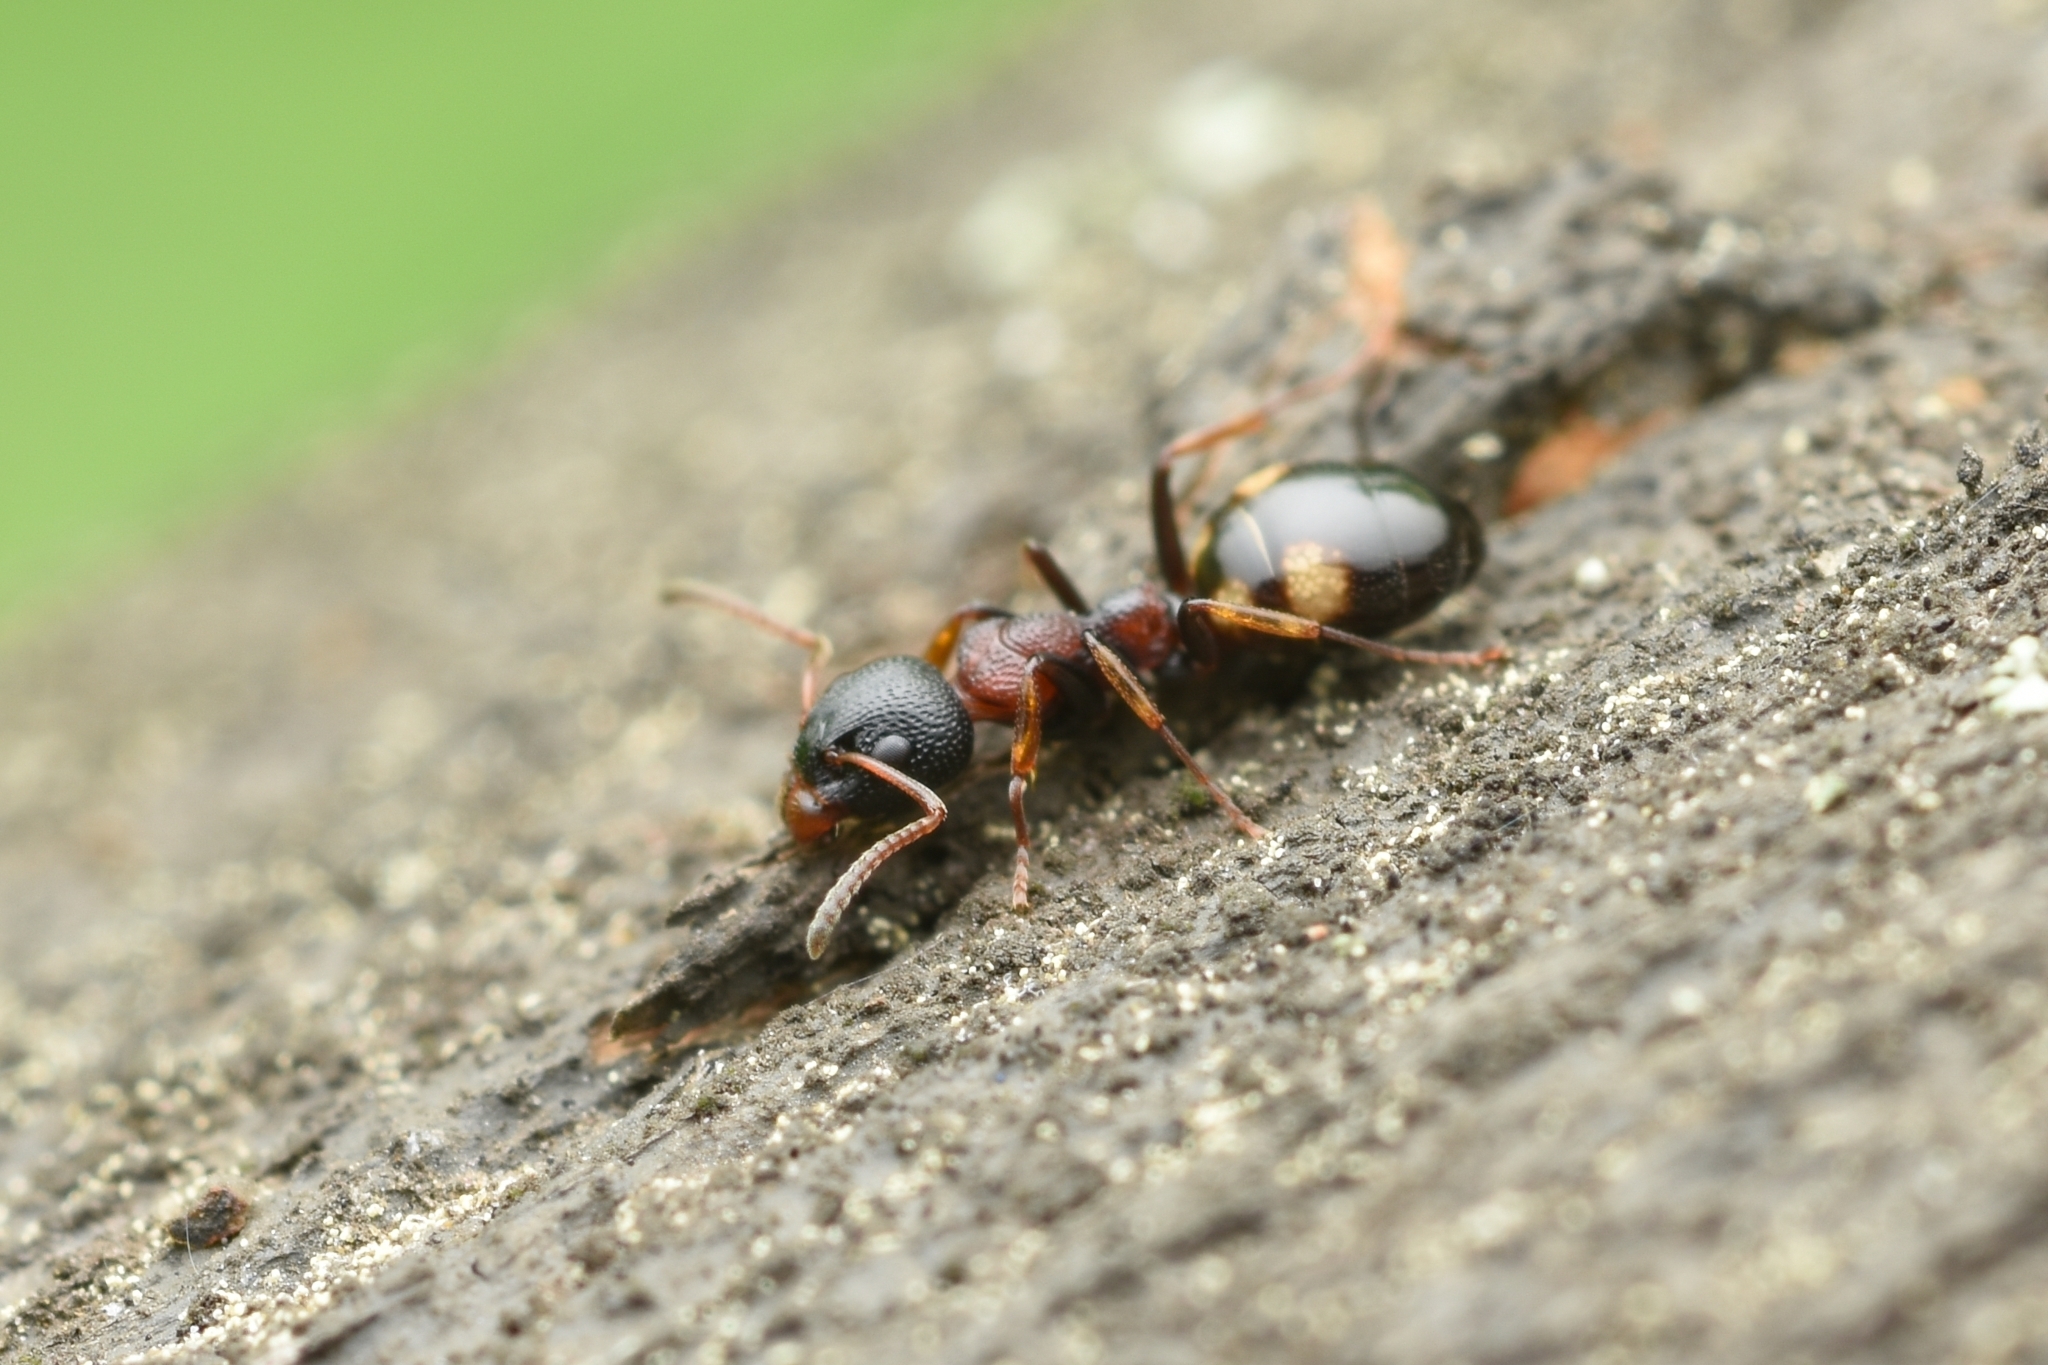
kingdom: Animalia
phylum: Arthropoda
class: Insecta
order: Hymenoptera
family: Formicidae
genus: Dolichoderus
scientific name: Dolichoderus sibiricus
